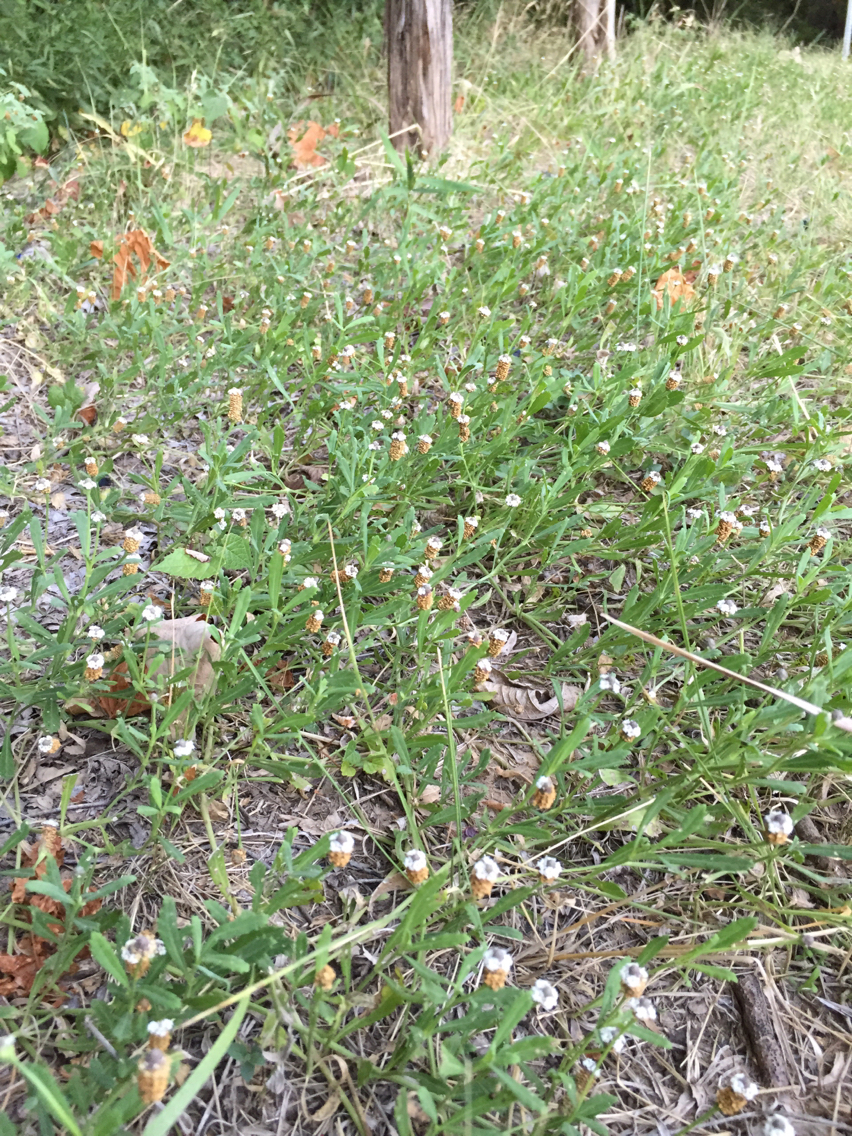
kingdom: Plantae
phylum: Tracheophyta
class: Magnoliopsida
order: Lamiales
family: Verbenaceae
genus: Phyla
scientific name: Phyla nodiflora
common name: Frogfruit
